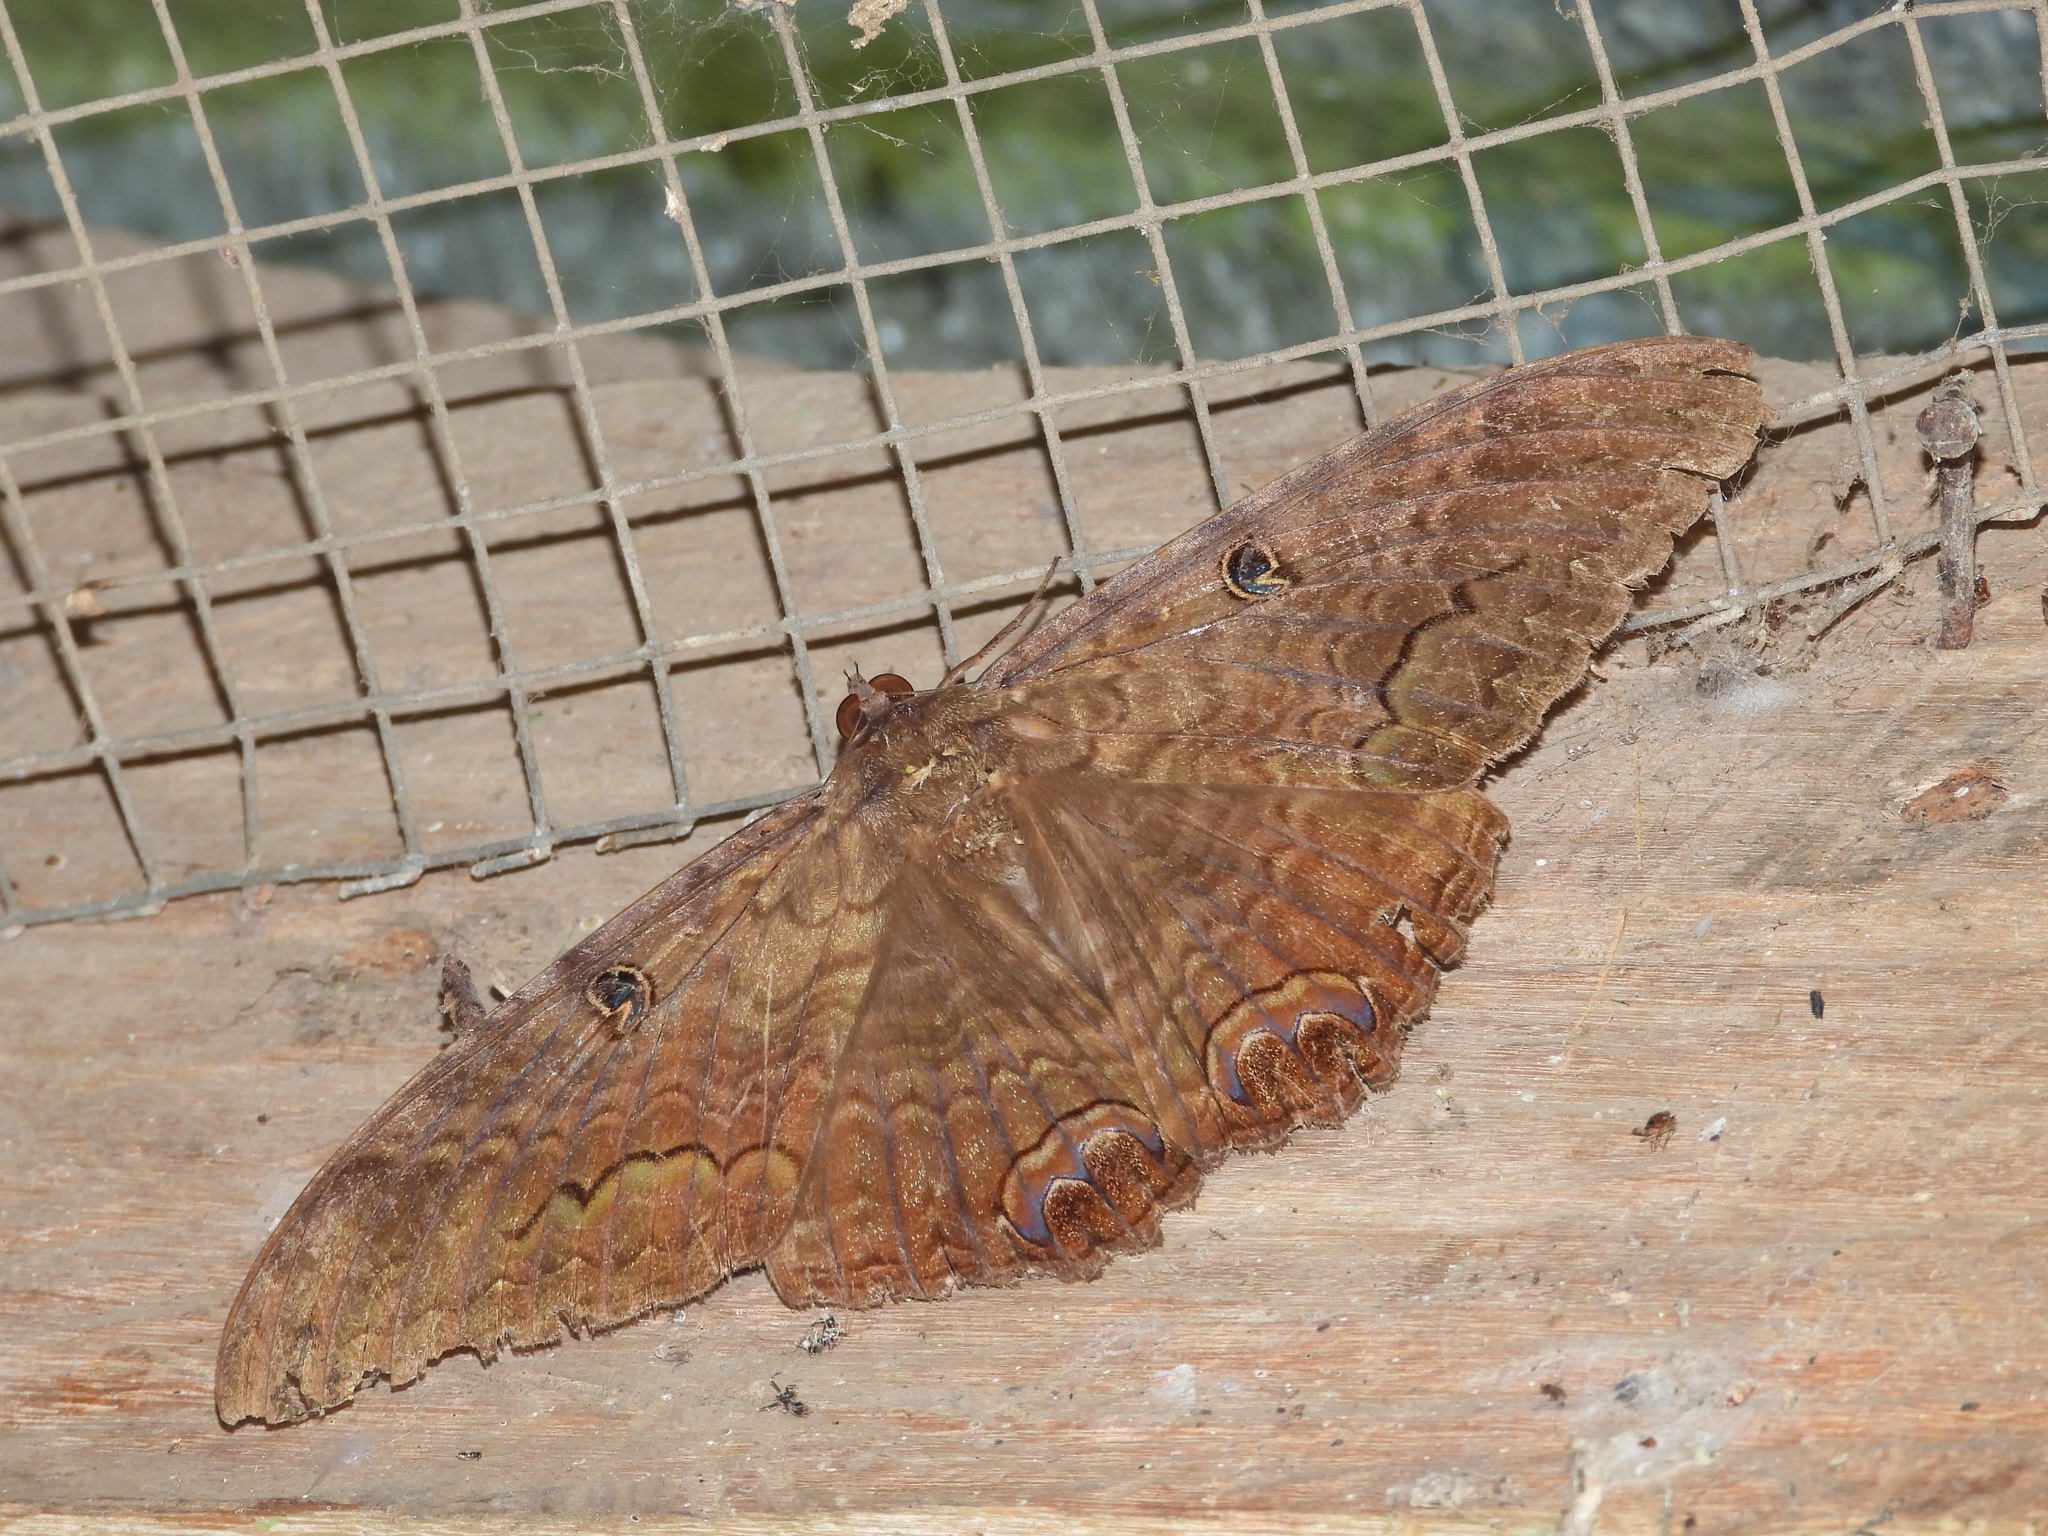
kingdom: Animalia
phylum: Arthropoda
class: Insecta
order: Lepidoptera
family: Erebidae
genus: Ascalapha
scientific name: Ascalapha odorata
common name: Black witch
